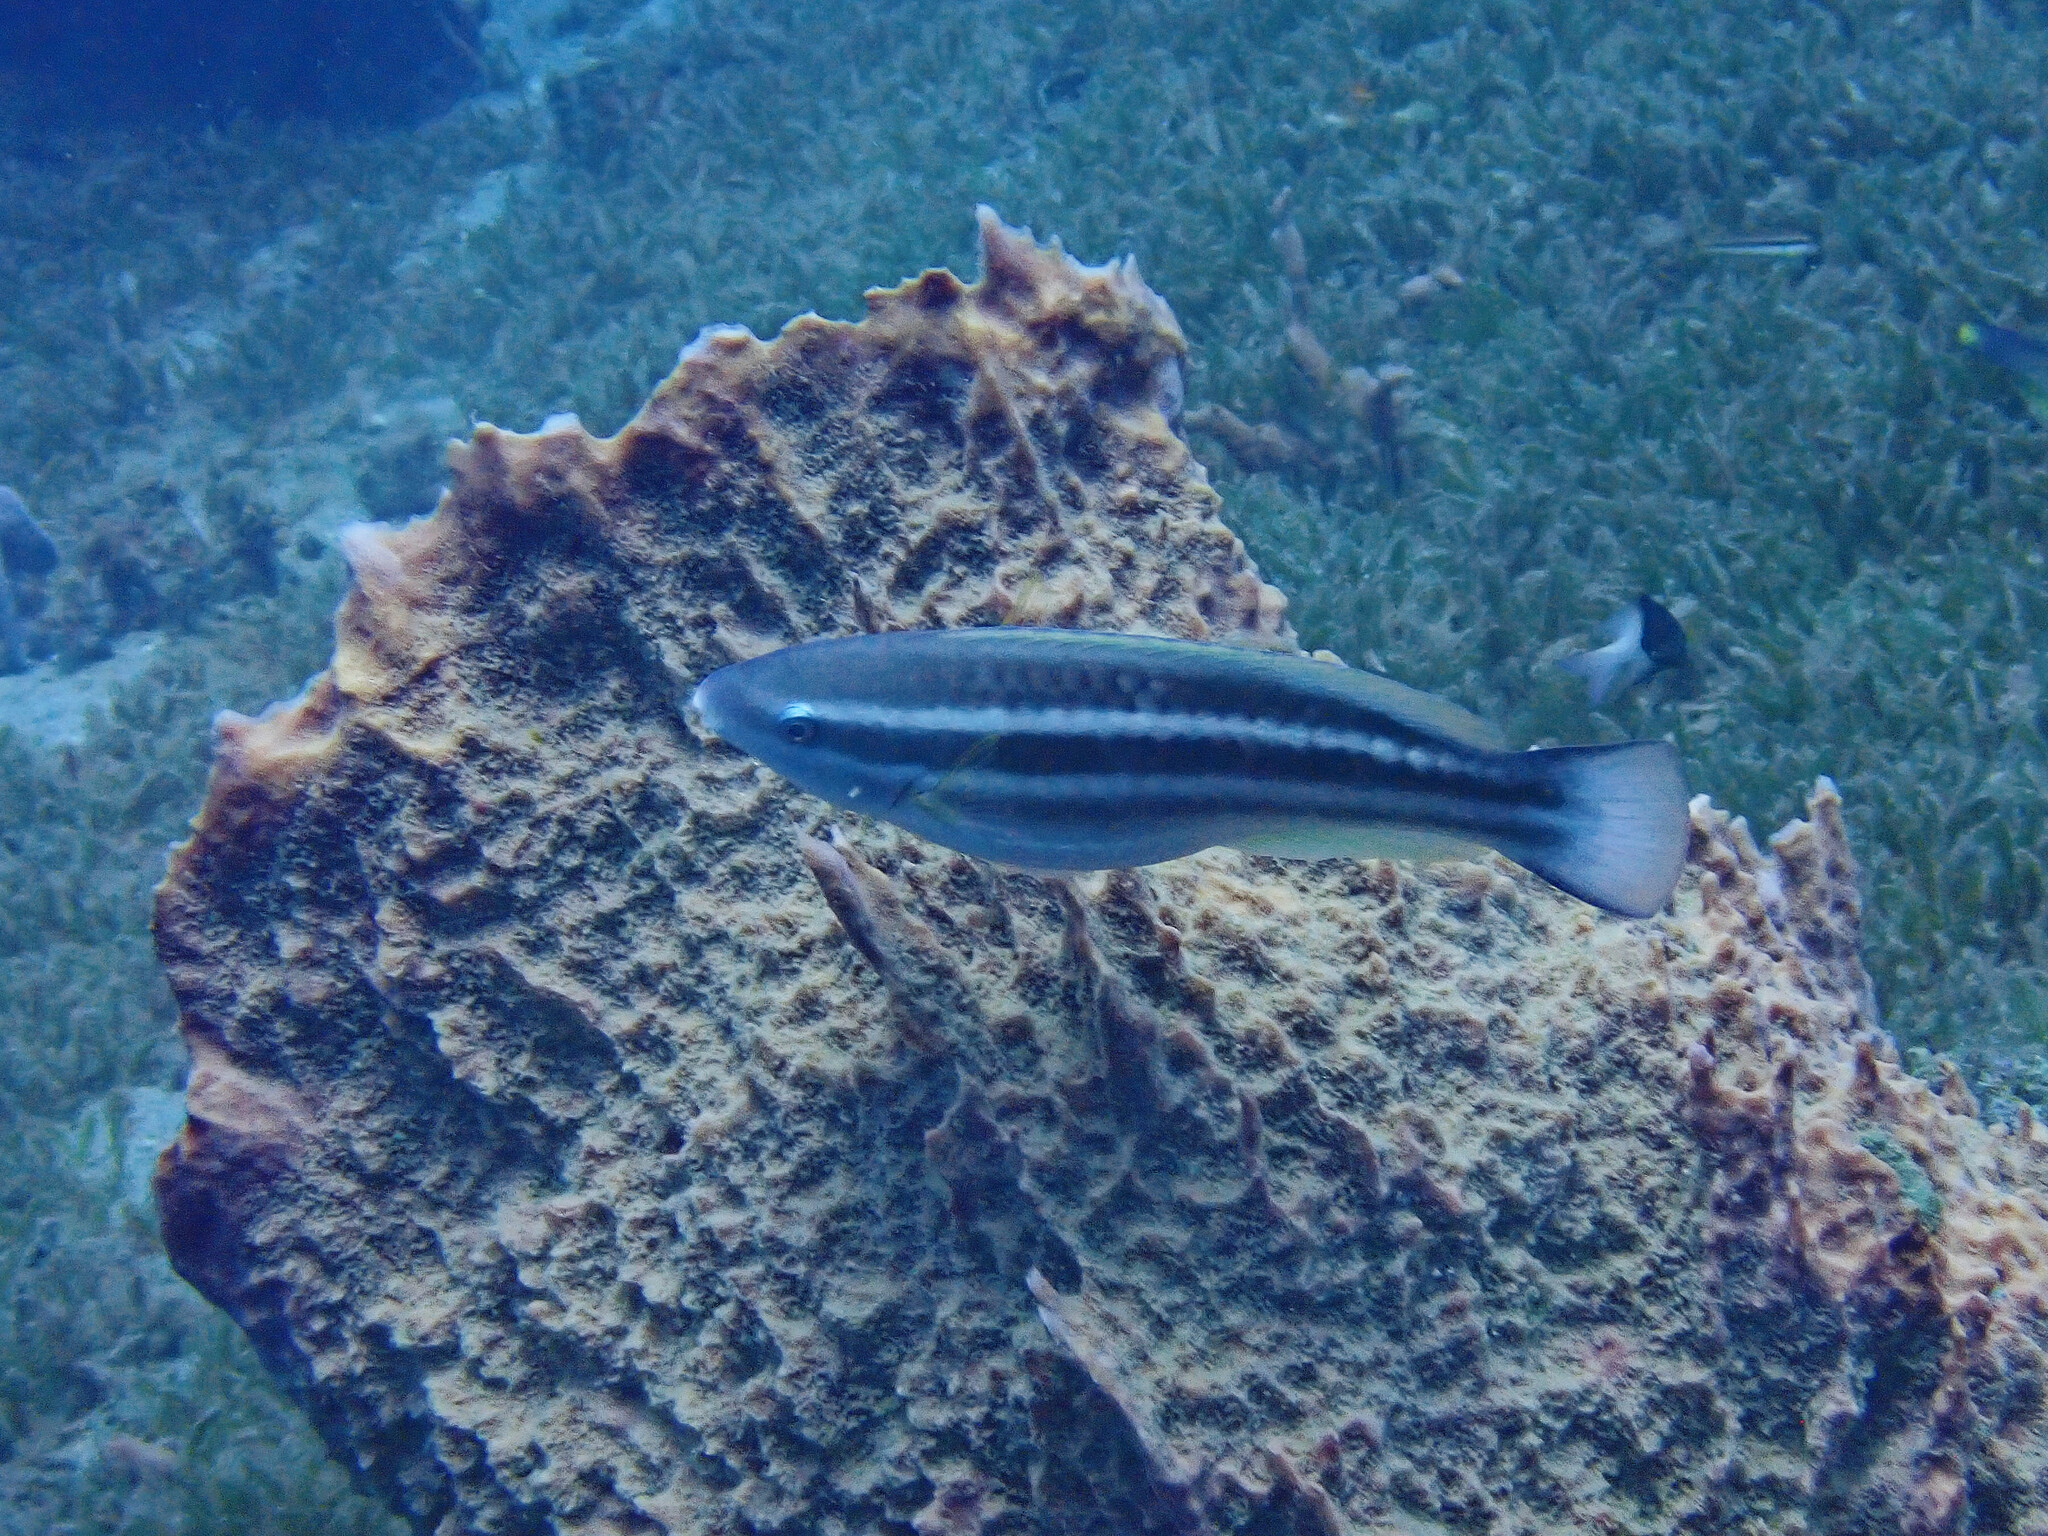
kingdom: Animalia
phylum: Chordata
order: Perciformes
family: Scaridae
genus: Scarus
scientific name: Scarus taeniopterus
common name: Princess parrotfish
